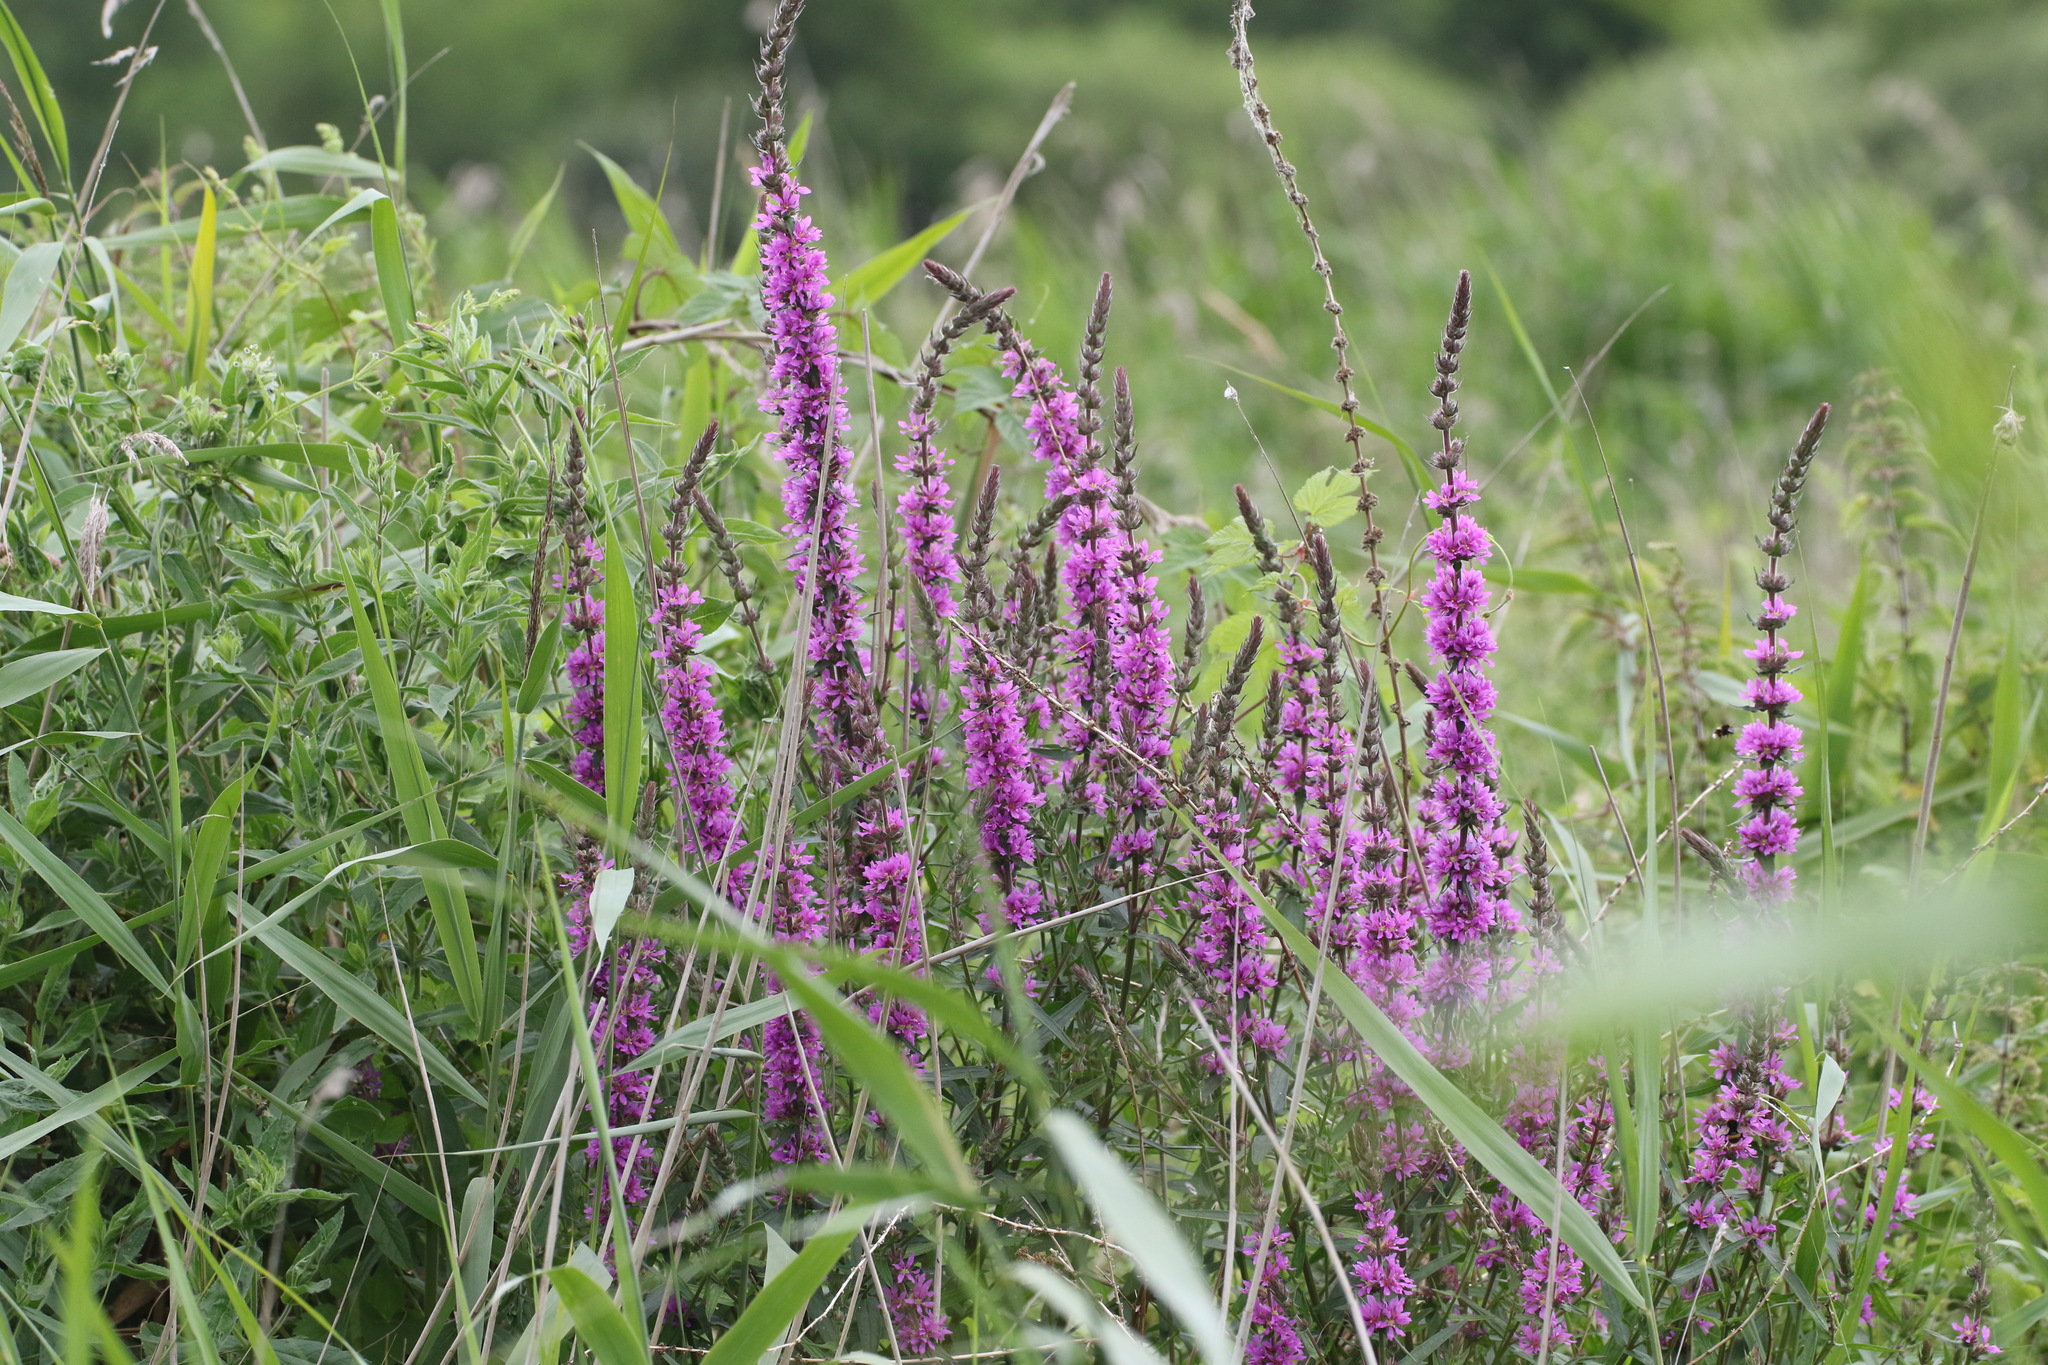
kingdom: Plantae
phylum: Tracheophyta
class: Magnoliopsida
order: Myrtales
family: Lythraceae
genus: Lythrum
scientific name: Lythrum salicaria
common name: Purple loosestrife
